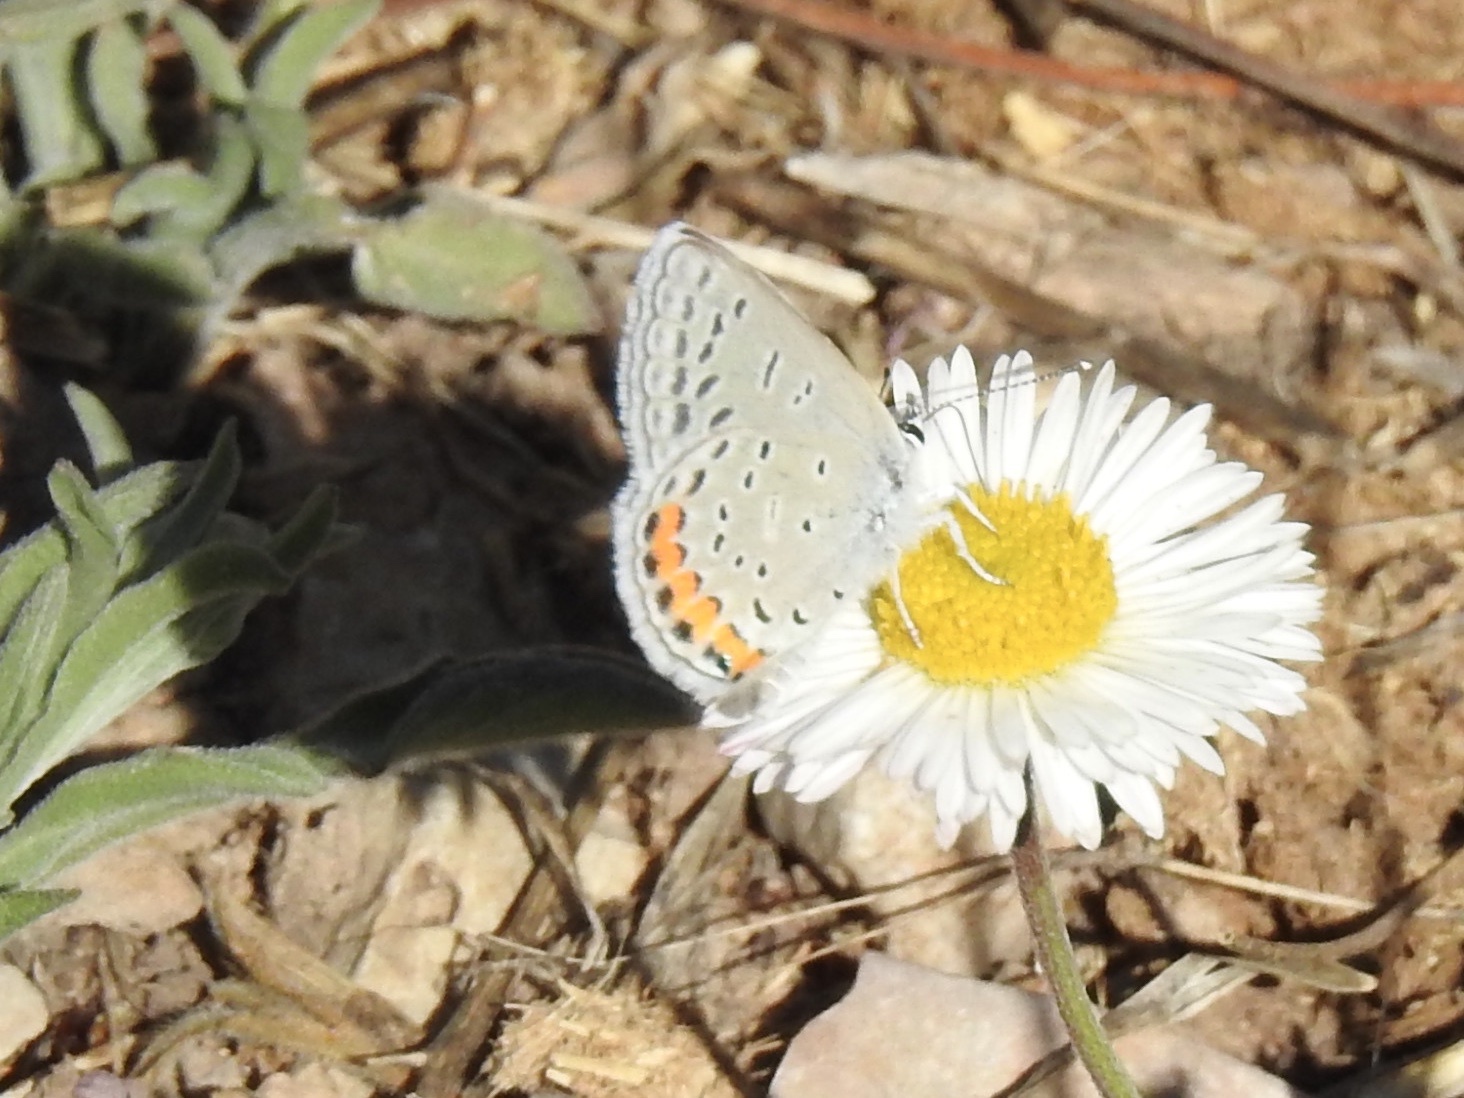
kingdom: Animalia
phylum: Arthropoda
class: Insecta
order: Lepidoptera
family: Lycaenidae
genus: Icaricia
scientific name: Icaricia lupini
